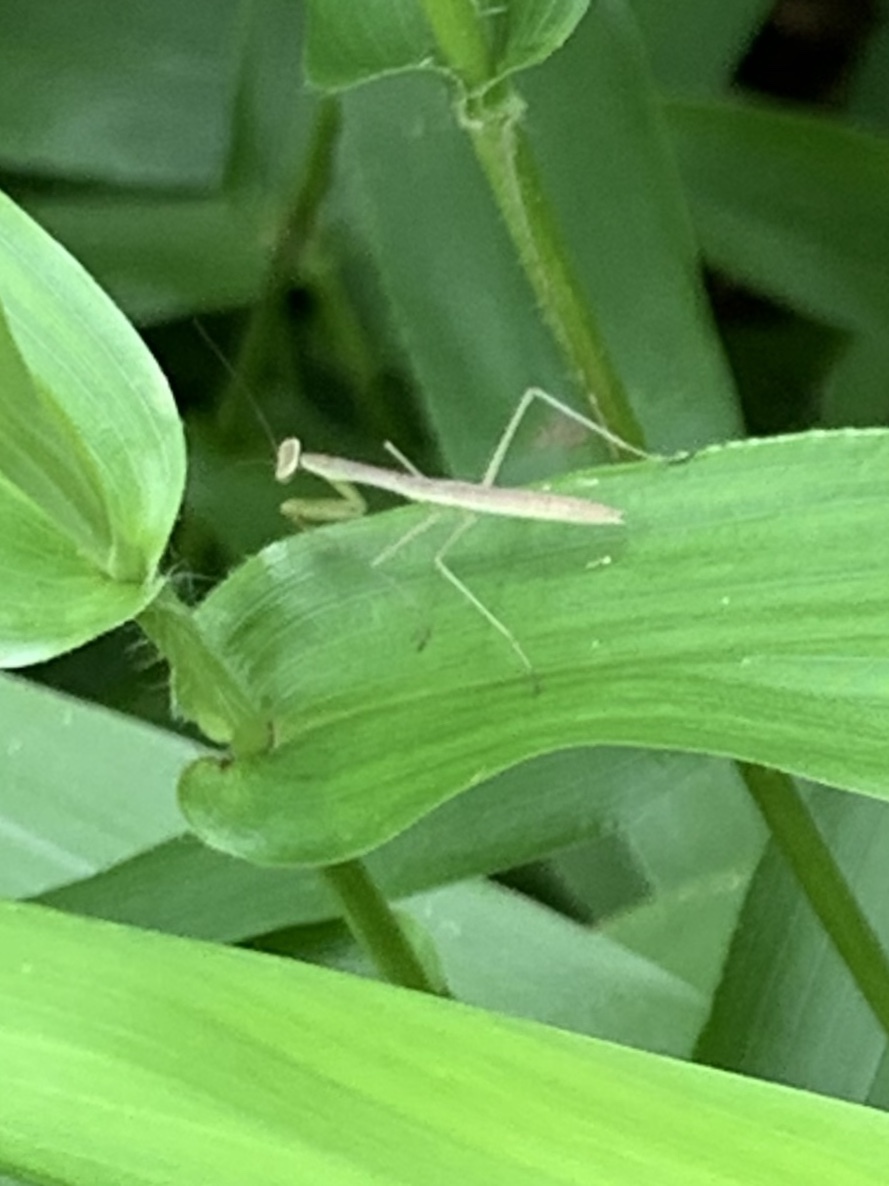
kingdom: Animalia
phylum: Arthropoda
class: Insecta
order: Mantodea
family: Mantidae
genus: Tenodera
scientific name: Tenodera sinensis
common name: Chinese mantis
